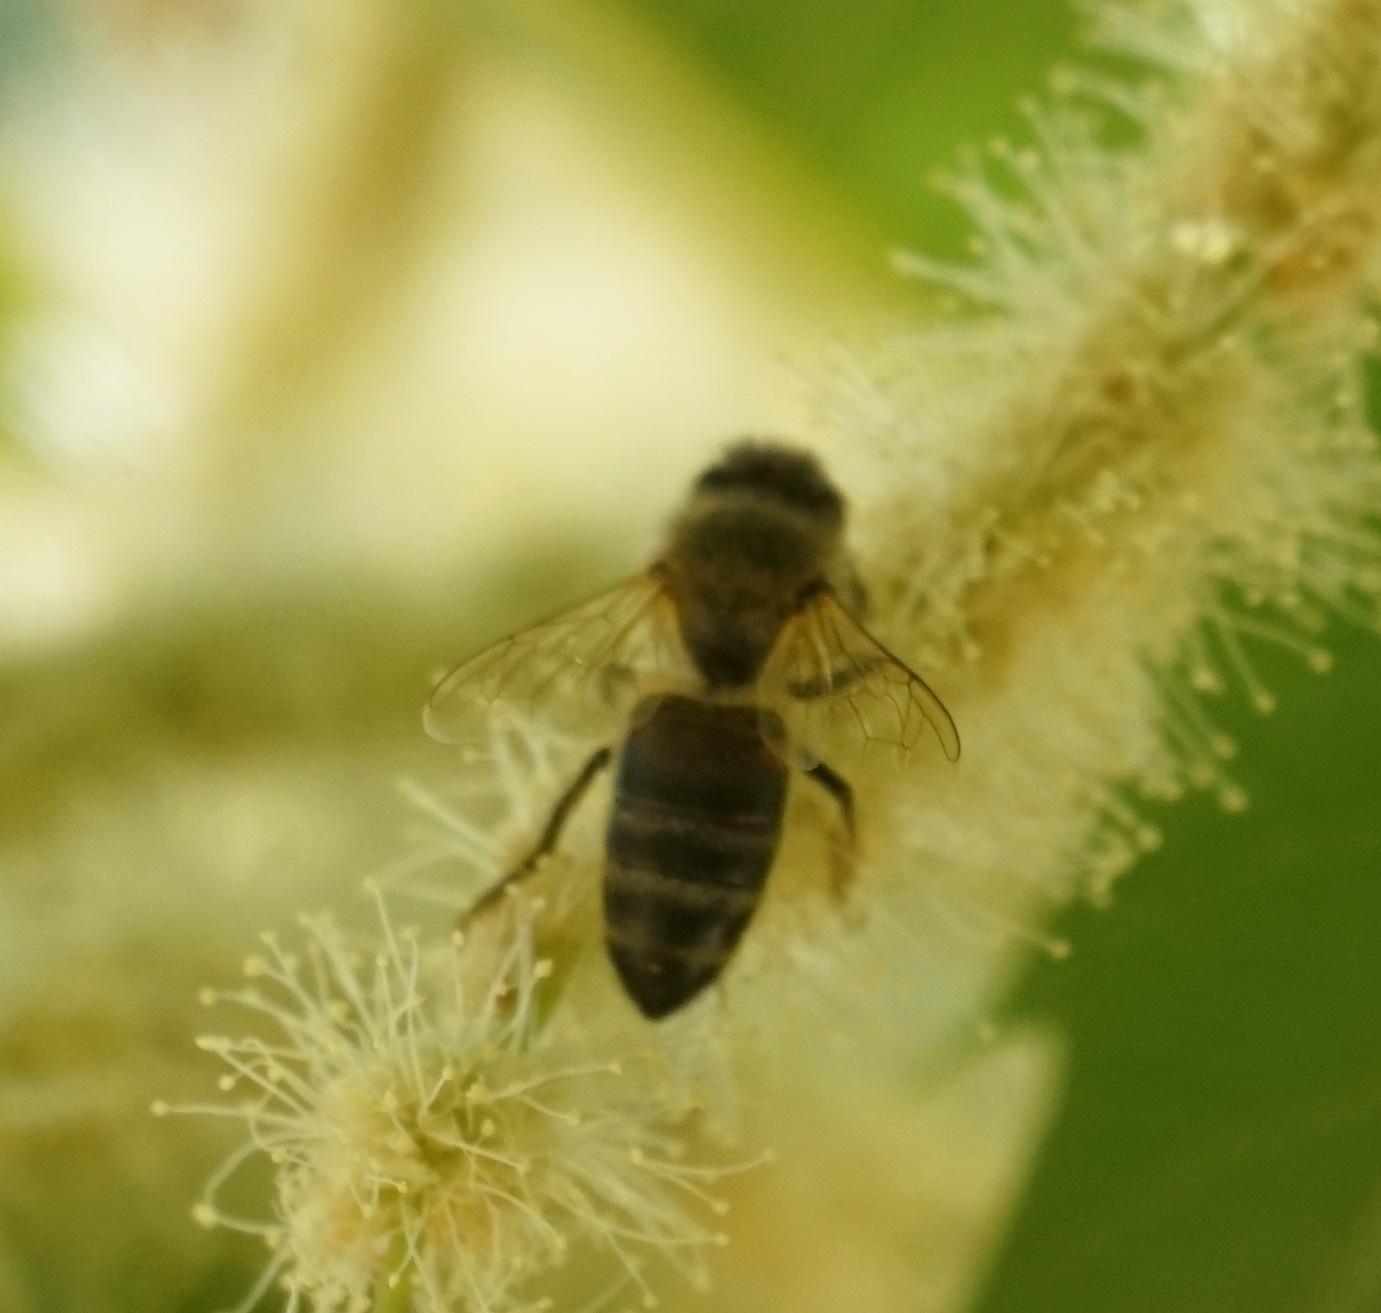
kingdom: Animalia
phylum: Arthropoda
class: Insecta
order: Hymenoptera
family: Apidae
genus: Apis
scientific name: Apis mellifera
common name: Honey bee
